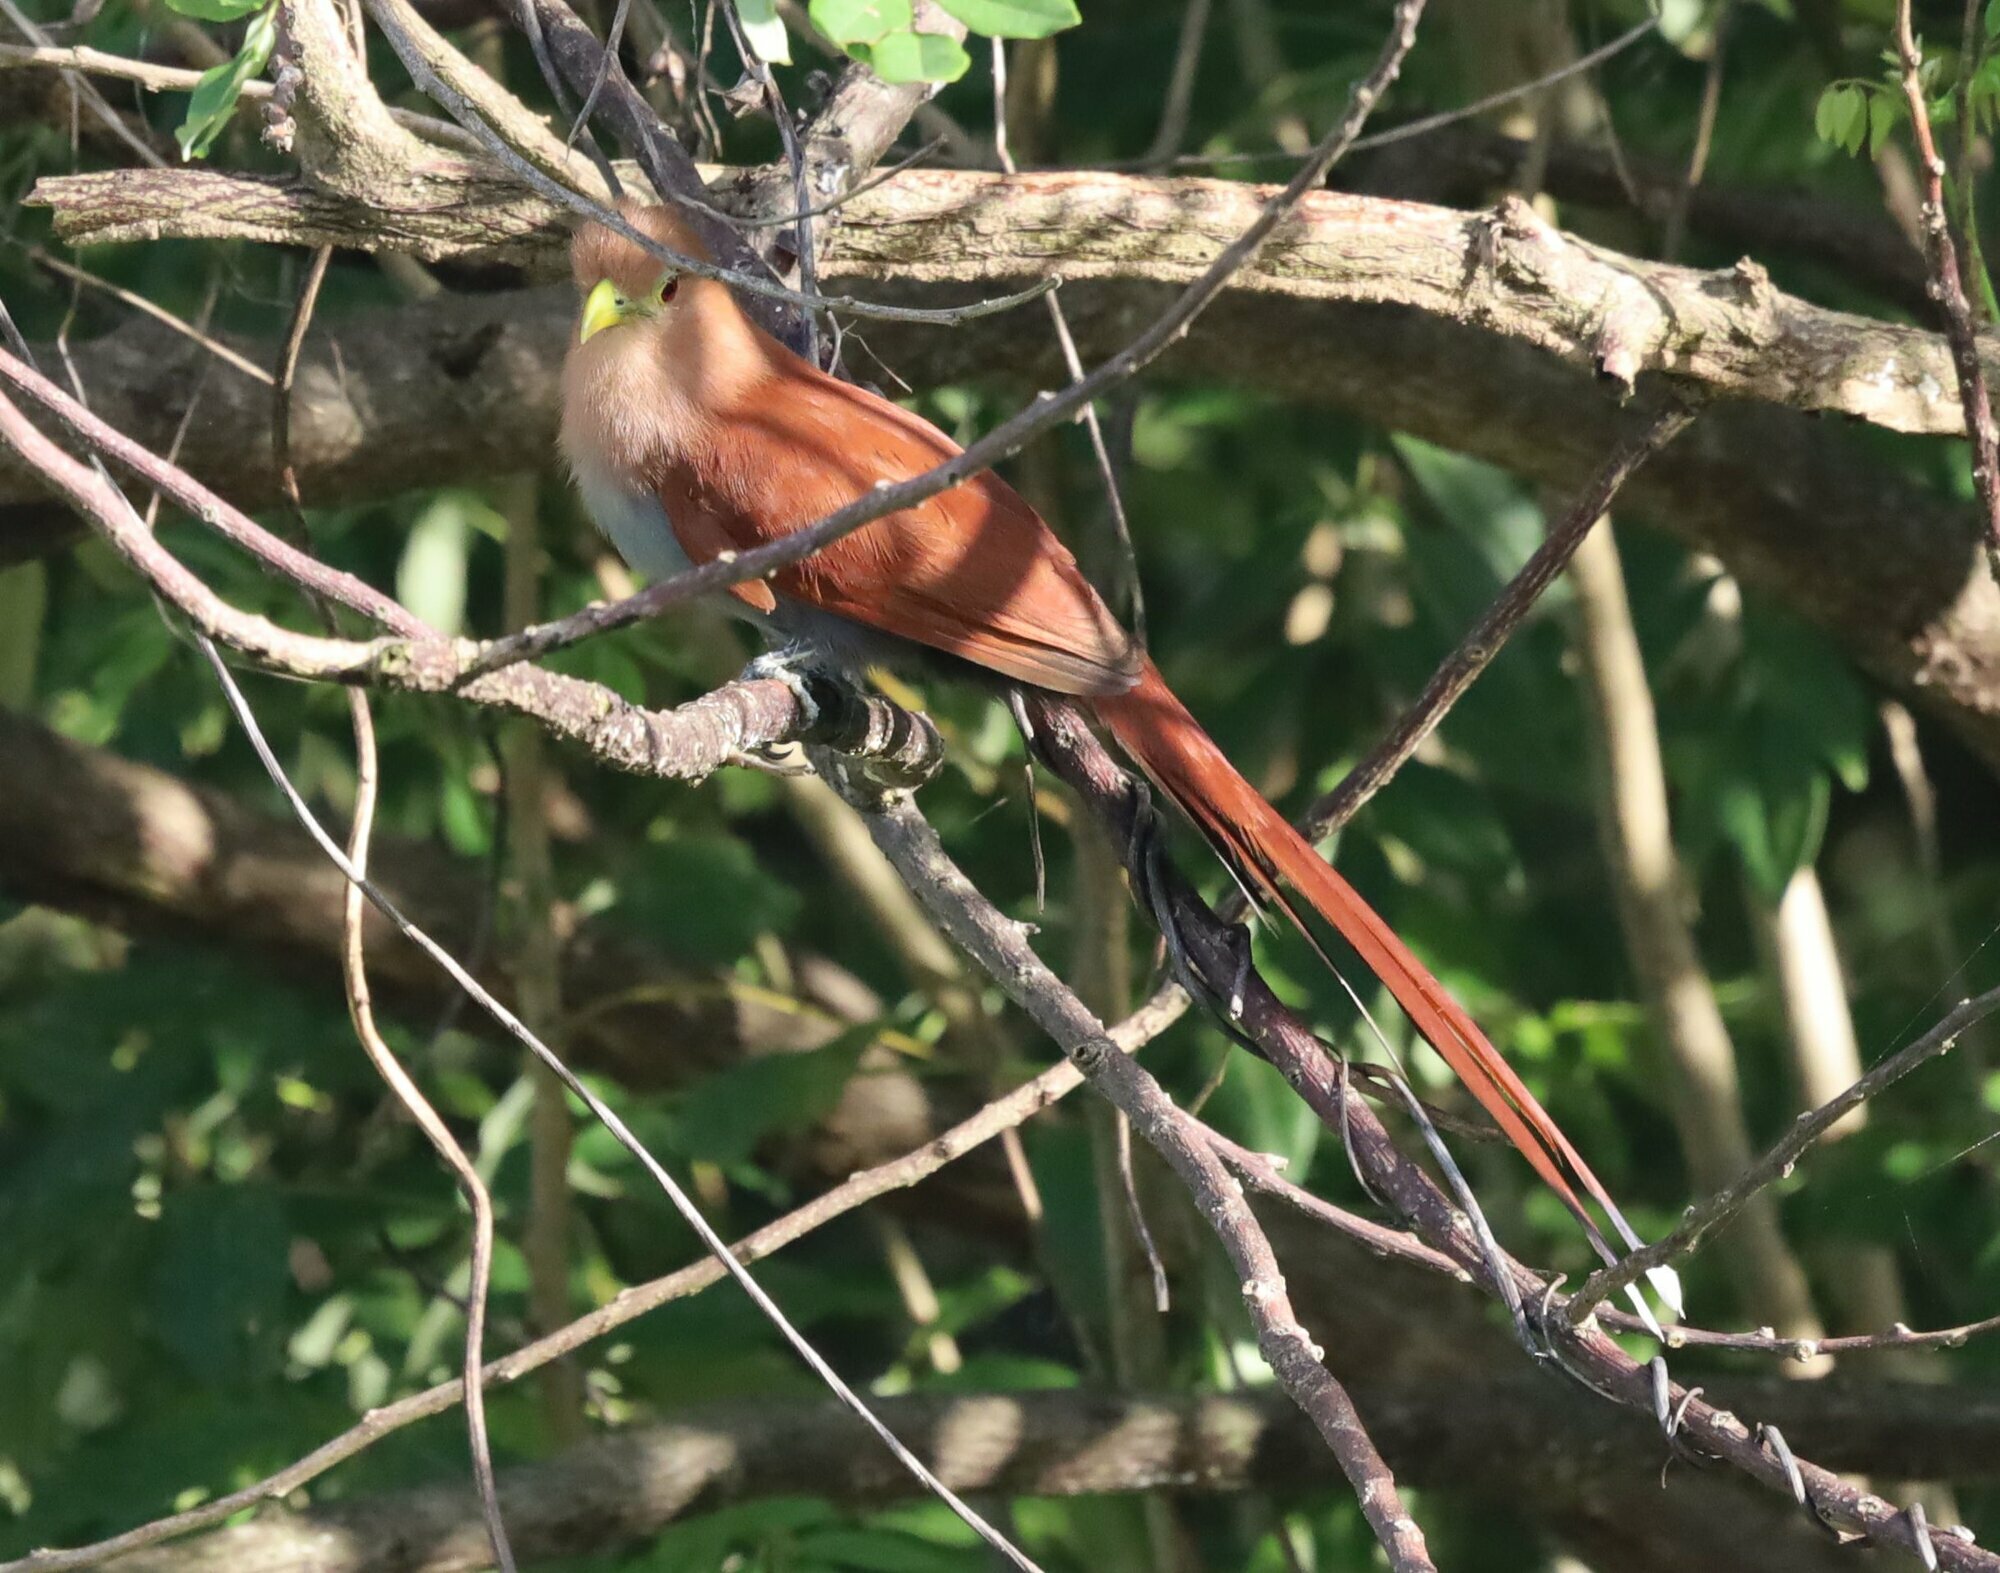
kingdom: Animalia
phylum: Chordata
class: Aves
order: Cuculiformes
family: Cuculidae
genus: Piaya
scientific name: Piaya cayana
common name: Squirrel cuckoo
